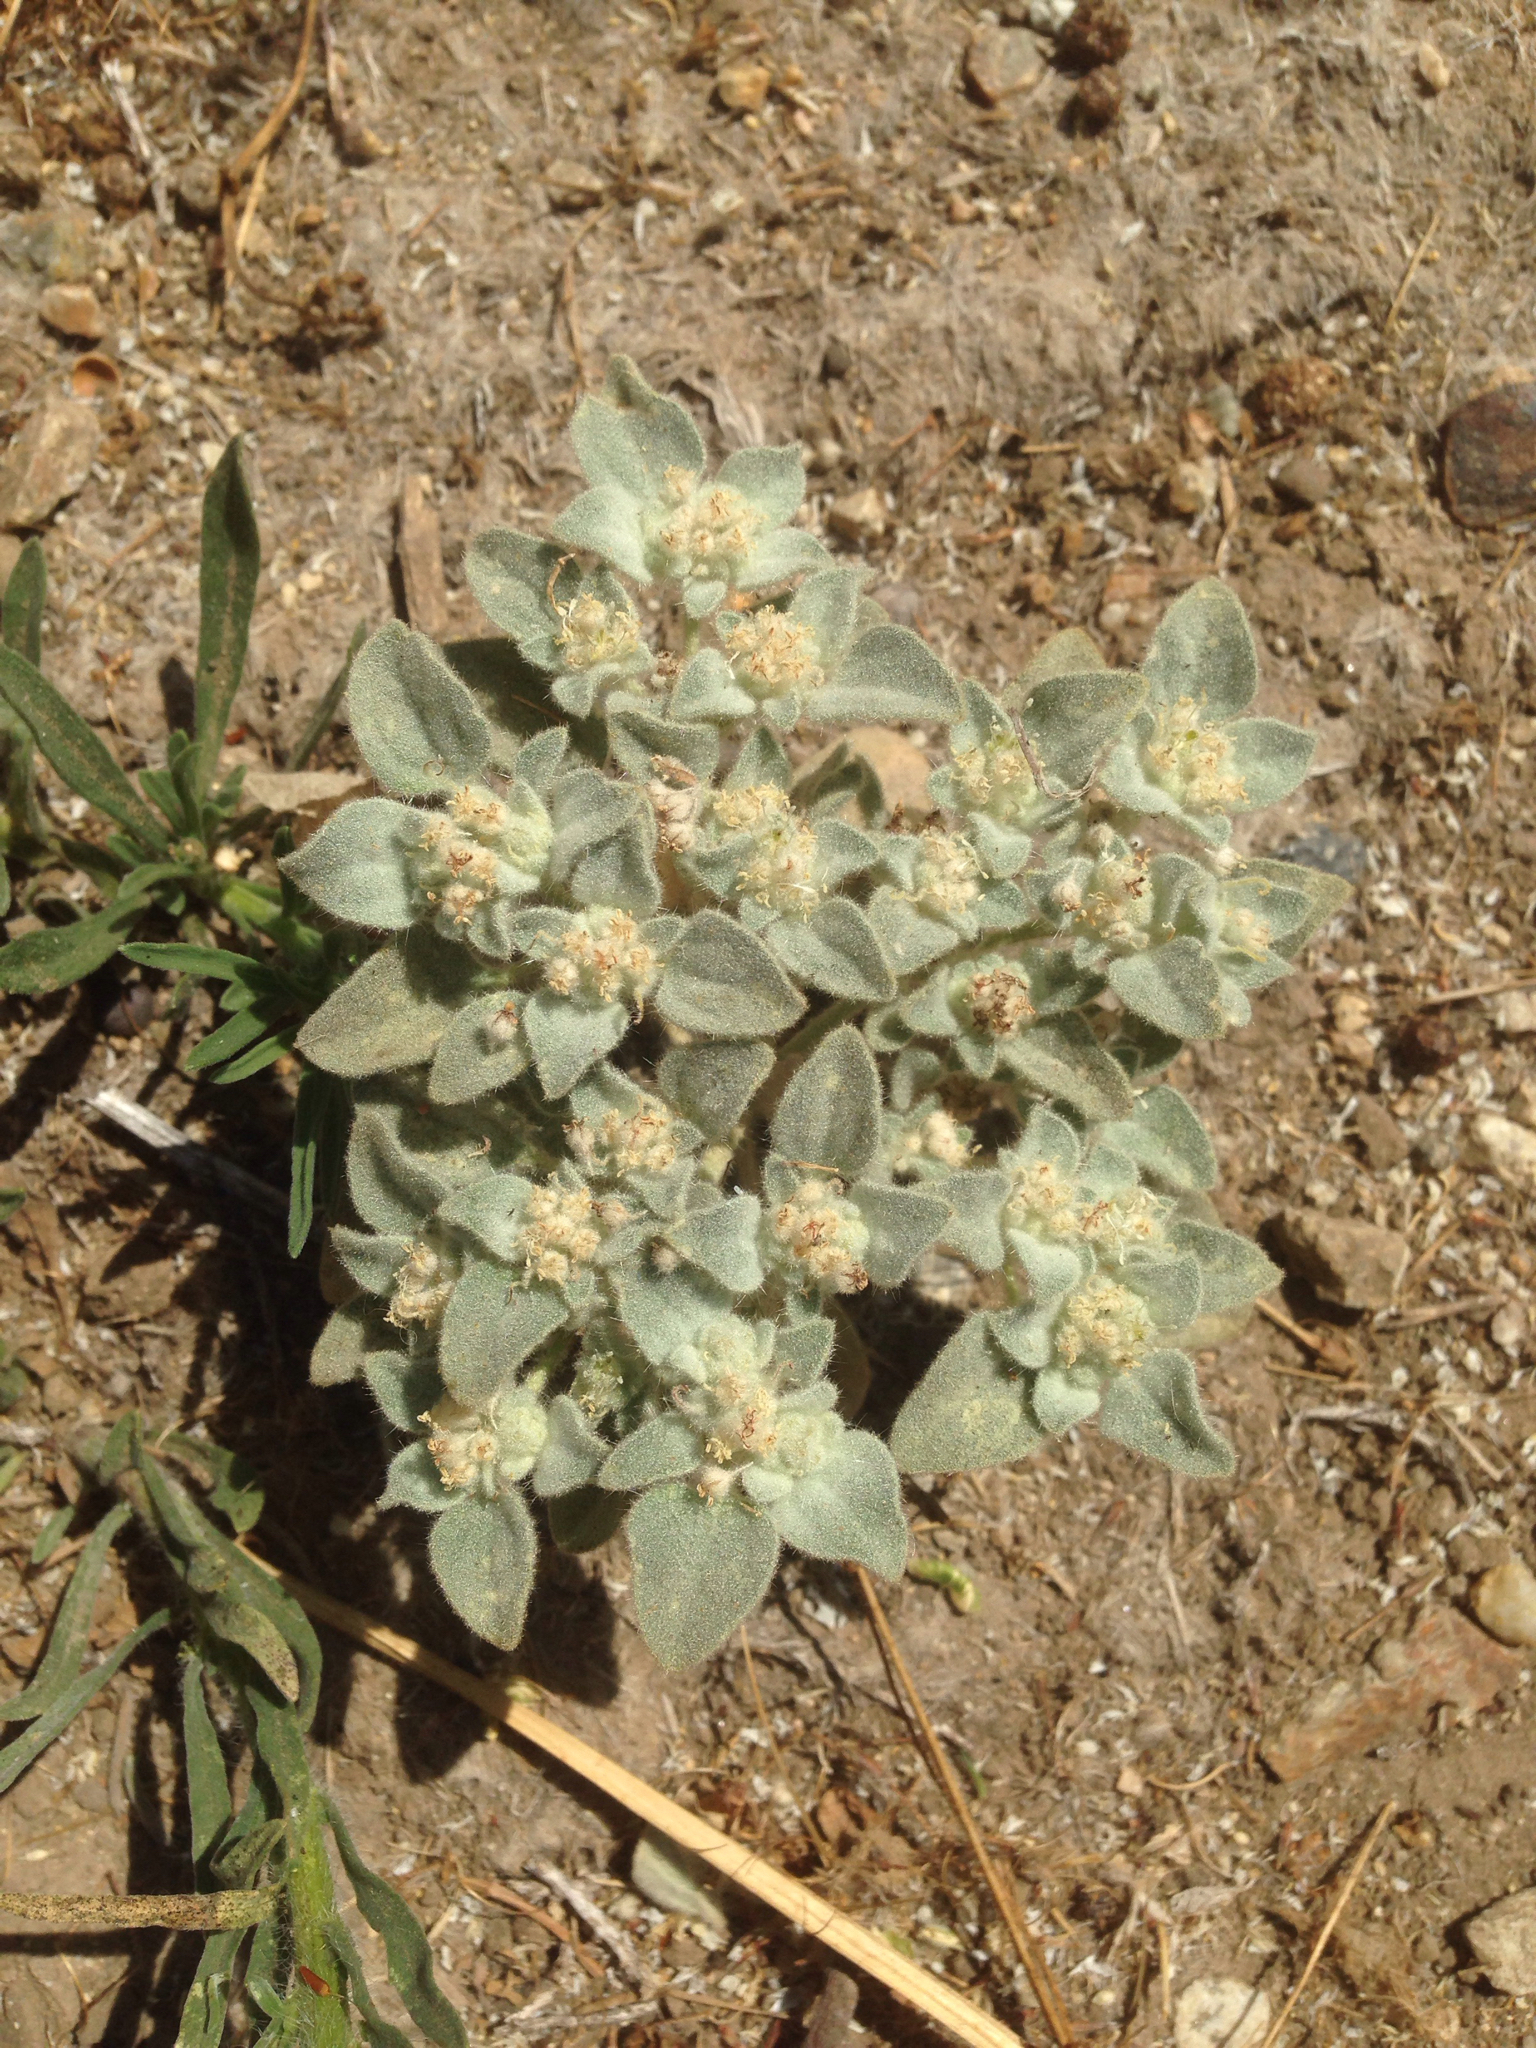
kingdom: Plantae
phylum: Tracheophyta
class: Magnoliopsida
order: Malpighiales
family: Euphorbiaceae
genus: Croton
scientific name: Croton setiger
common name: Dove weed
